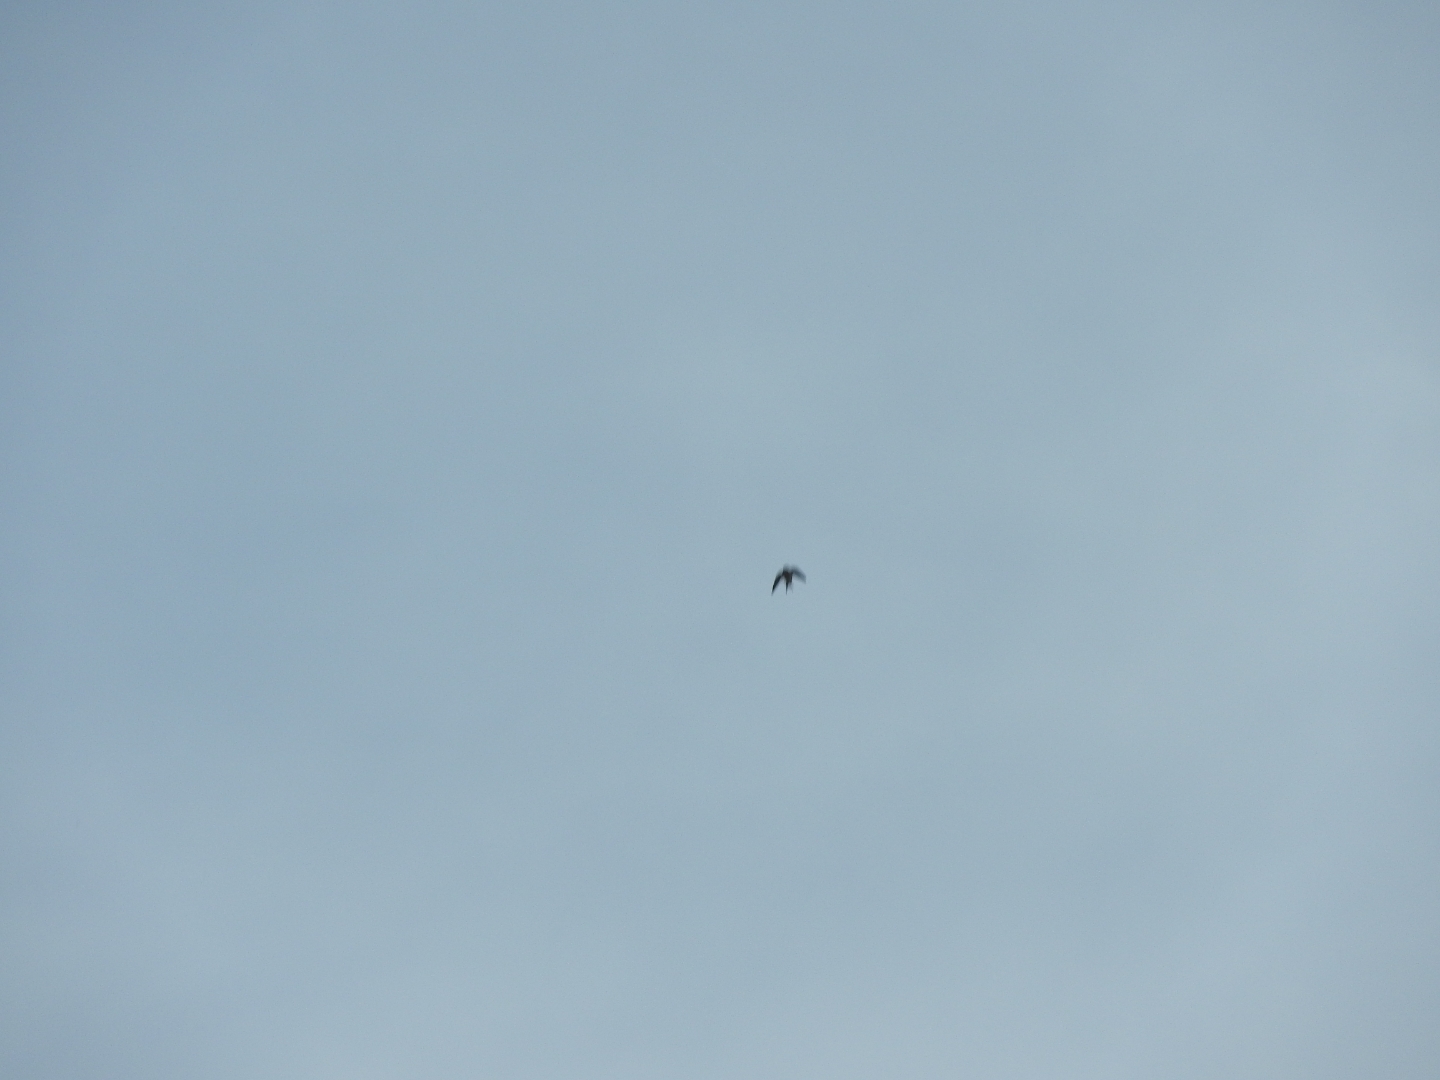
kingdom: Animalia
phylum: Chordata
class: Aves
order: Passeriformes
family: Hirundinidae
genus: Hirundo
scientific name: Hirundo rustica
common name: Barn swallow
